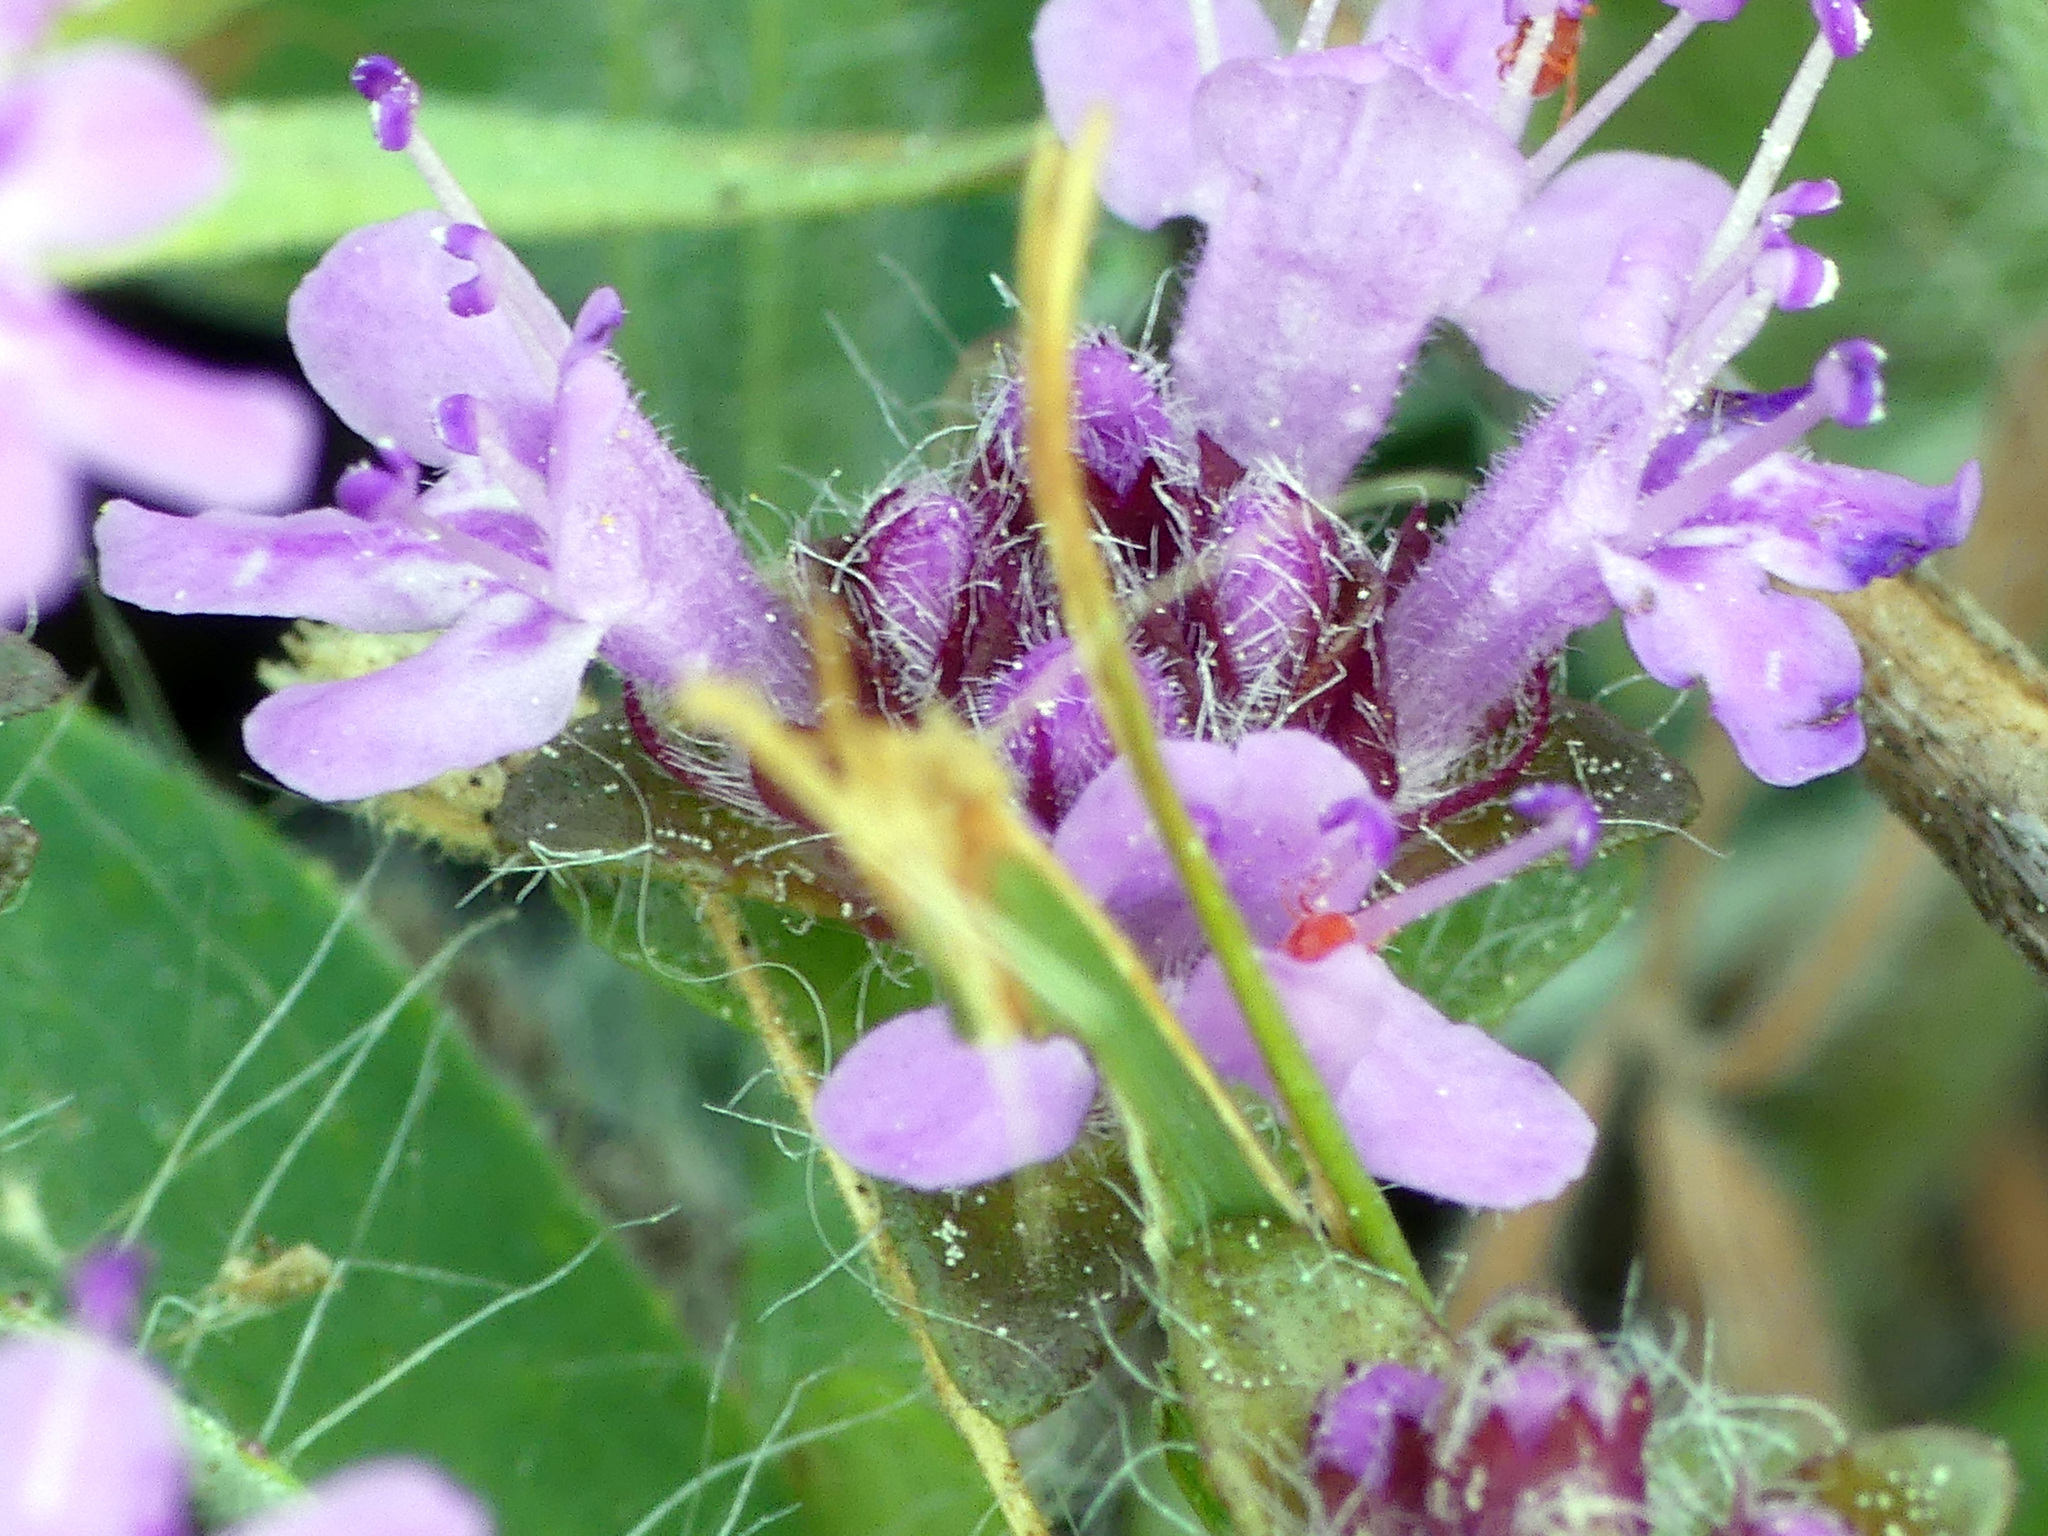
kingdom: Plantae
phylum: Tracheophyta
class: Magnoliopsida
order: Lamiales
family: Lamiaceae
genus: Thymus
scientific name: Thymus serpyllum
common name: Breckland thyme
